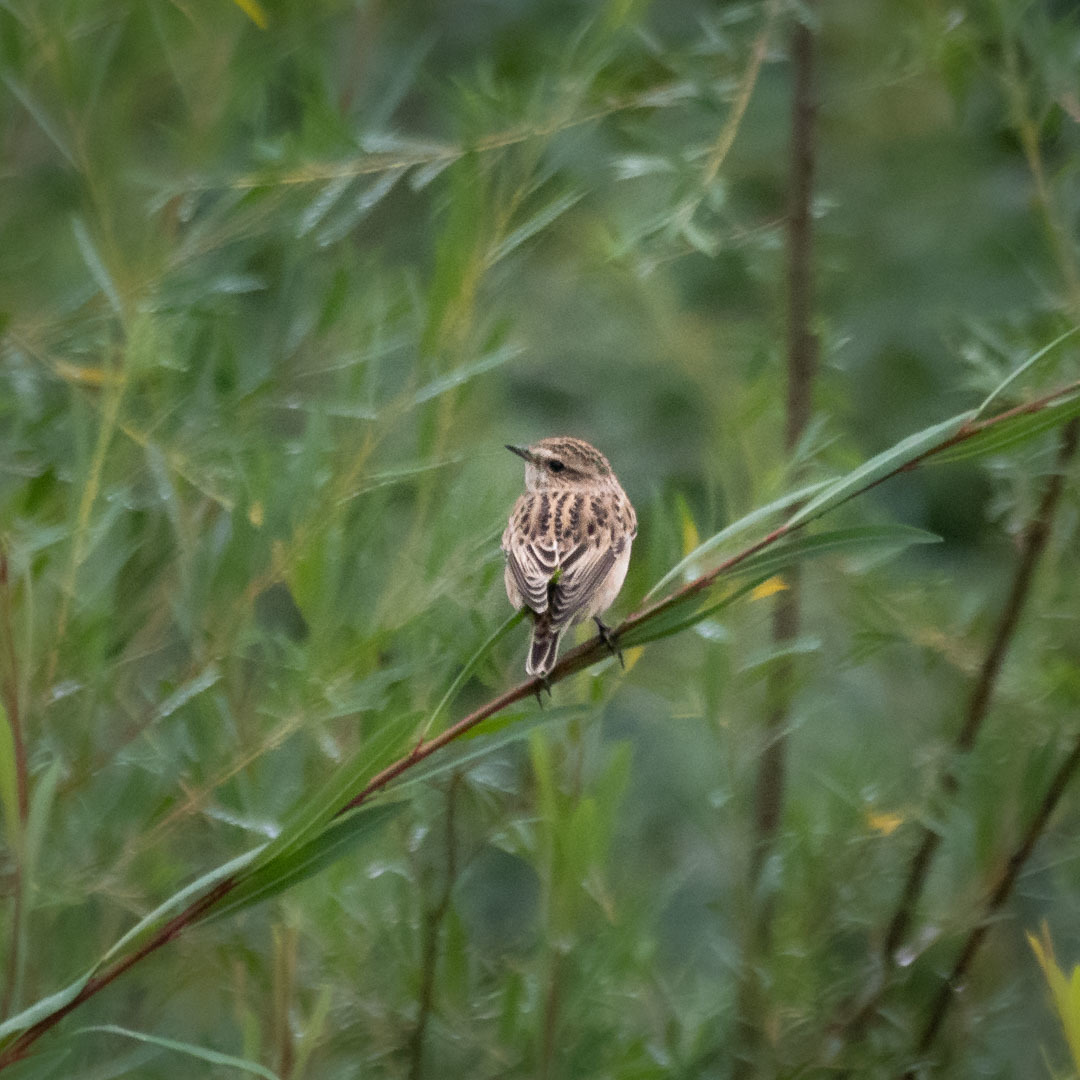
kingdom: Animalia
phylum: Chordata
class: Aves
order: Passeriformes
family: Muscicapidae
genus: Saxicola
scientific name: Saxicola rubetra
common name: Whinchat
